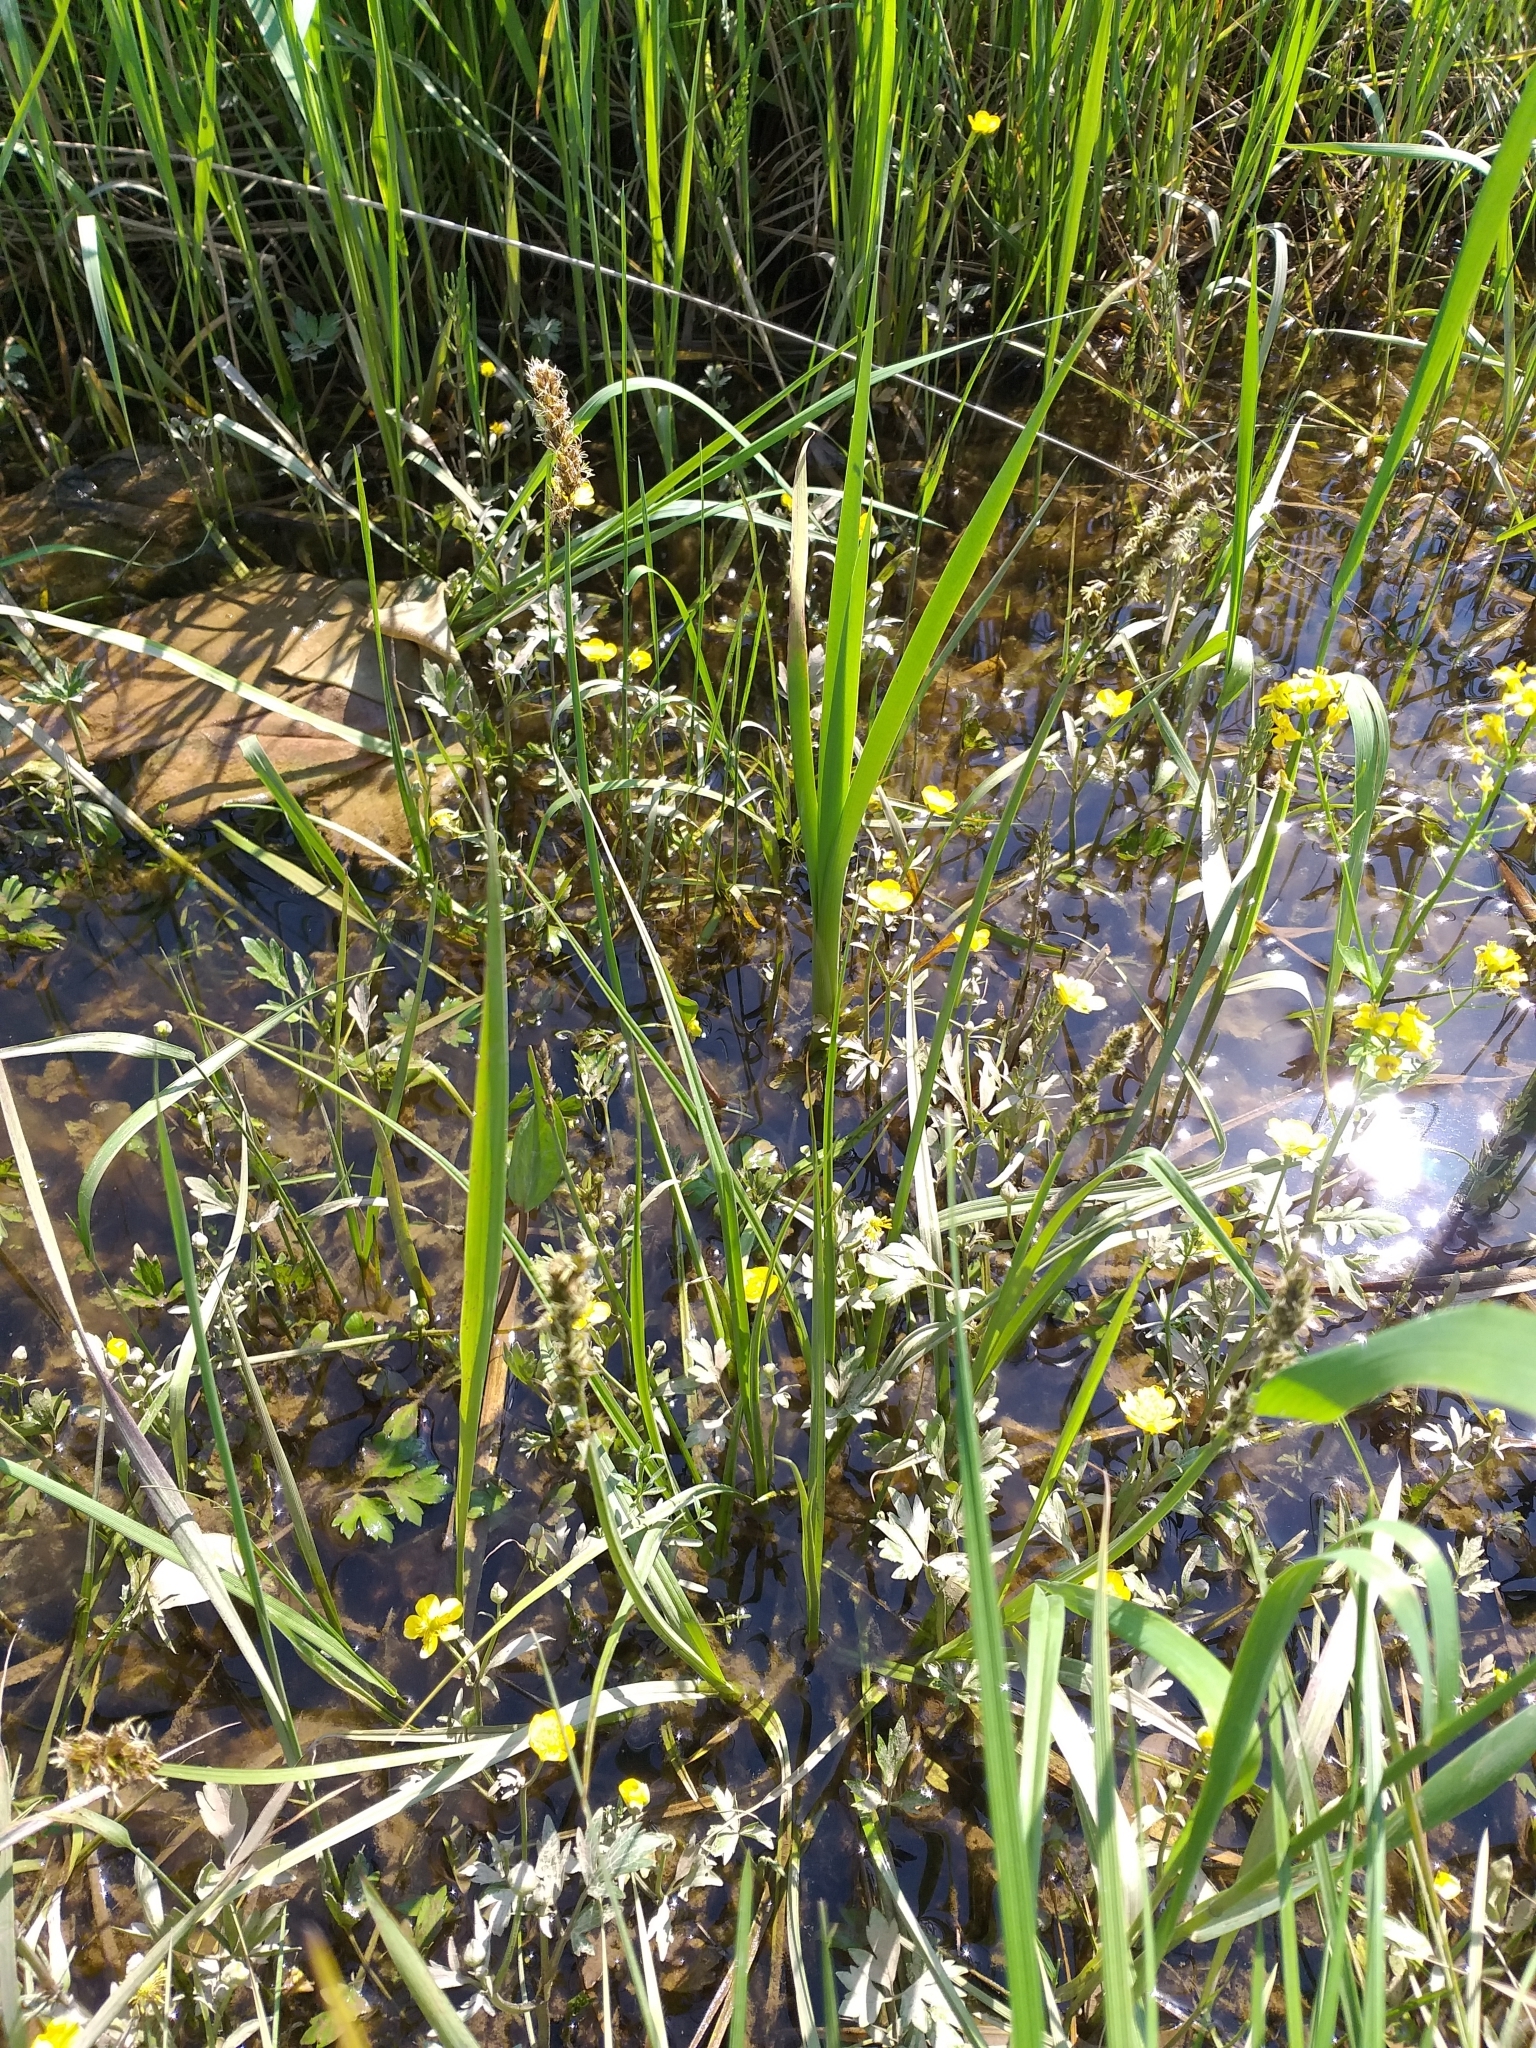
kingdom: Plantae
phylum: Tracheophyta
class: Liliopsida
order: Poales
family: Cyperaceae
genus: Carex
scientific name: Carex vulpina
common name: True fox-sedge
